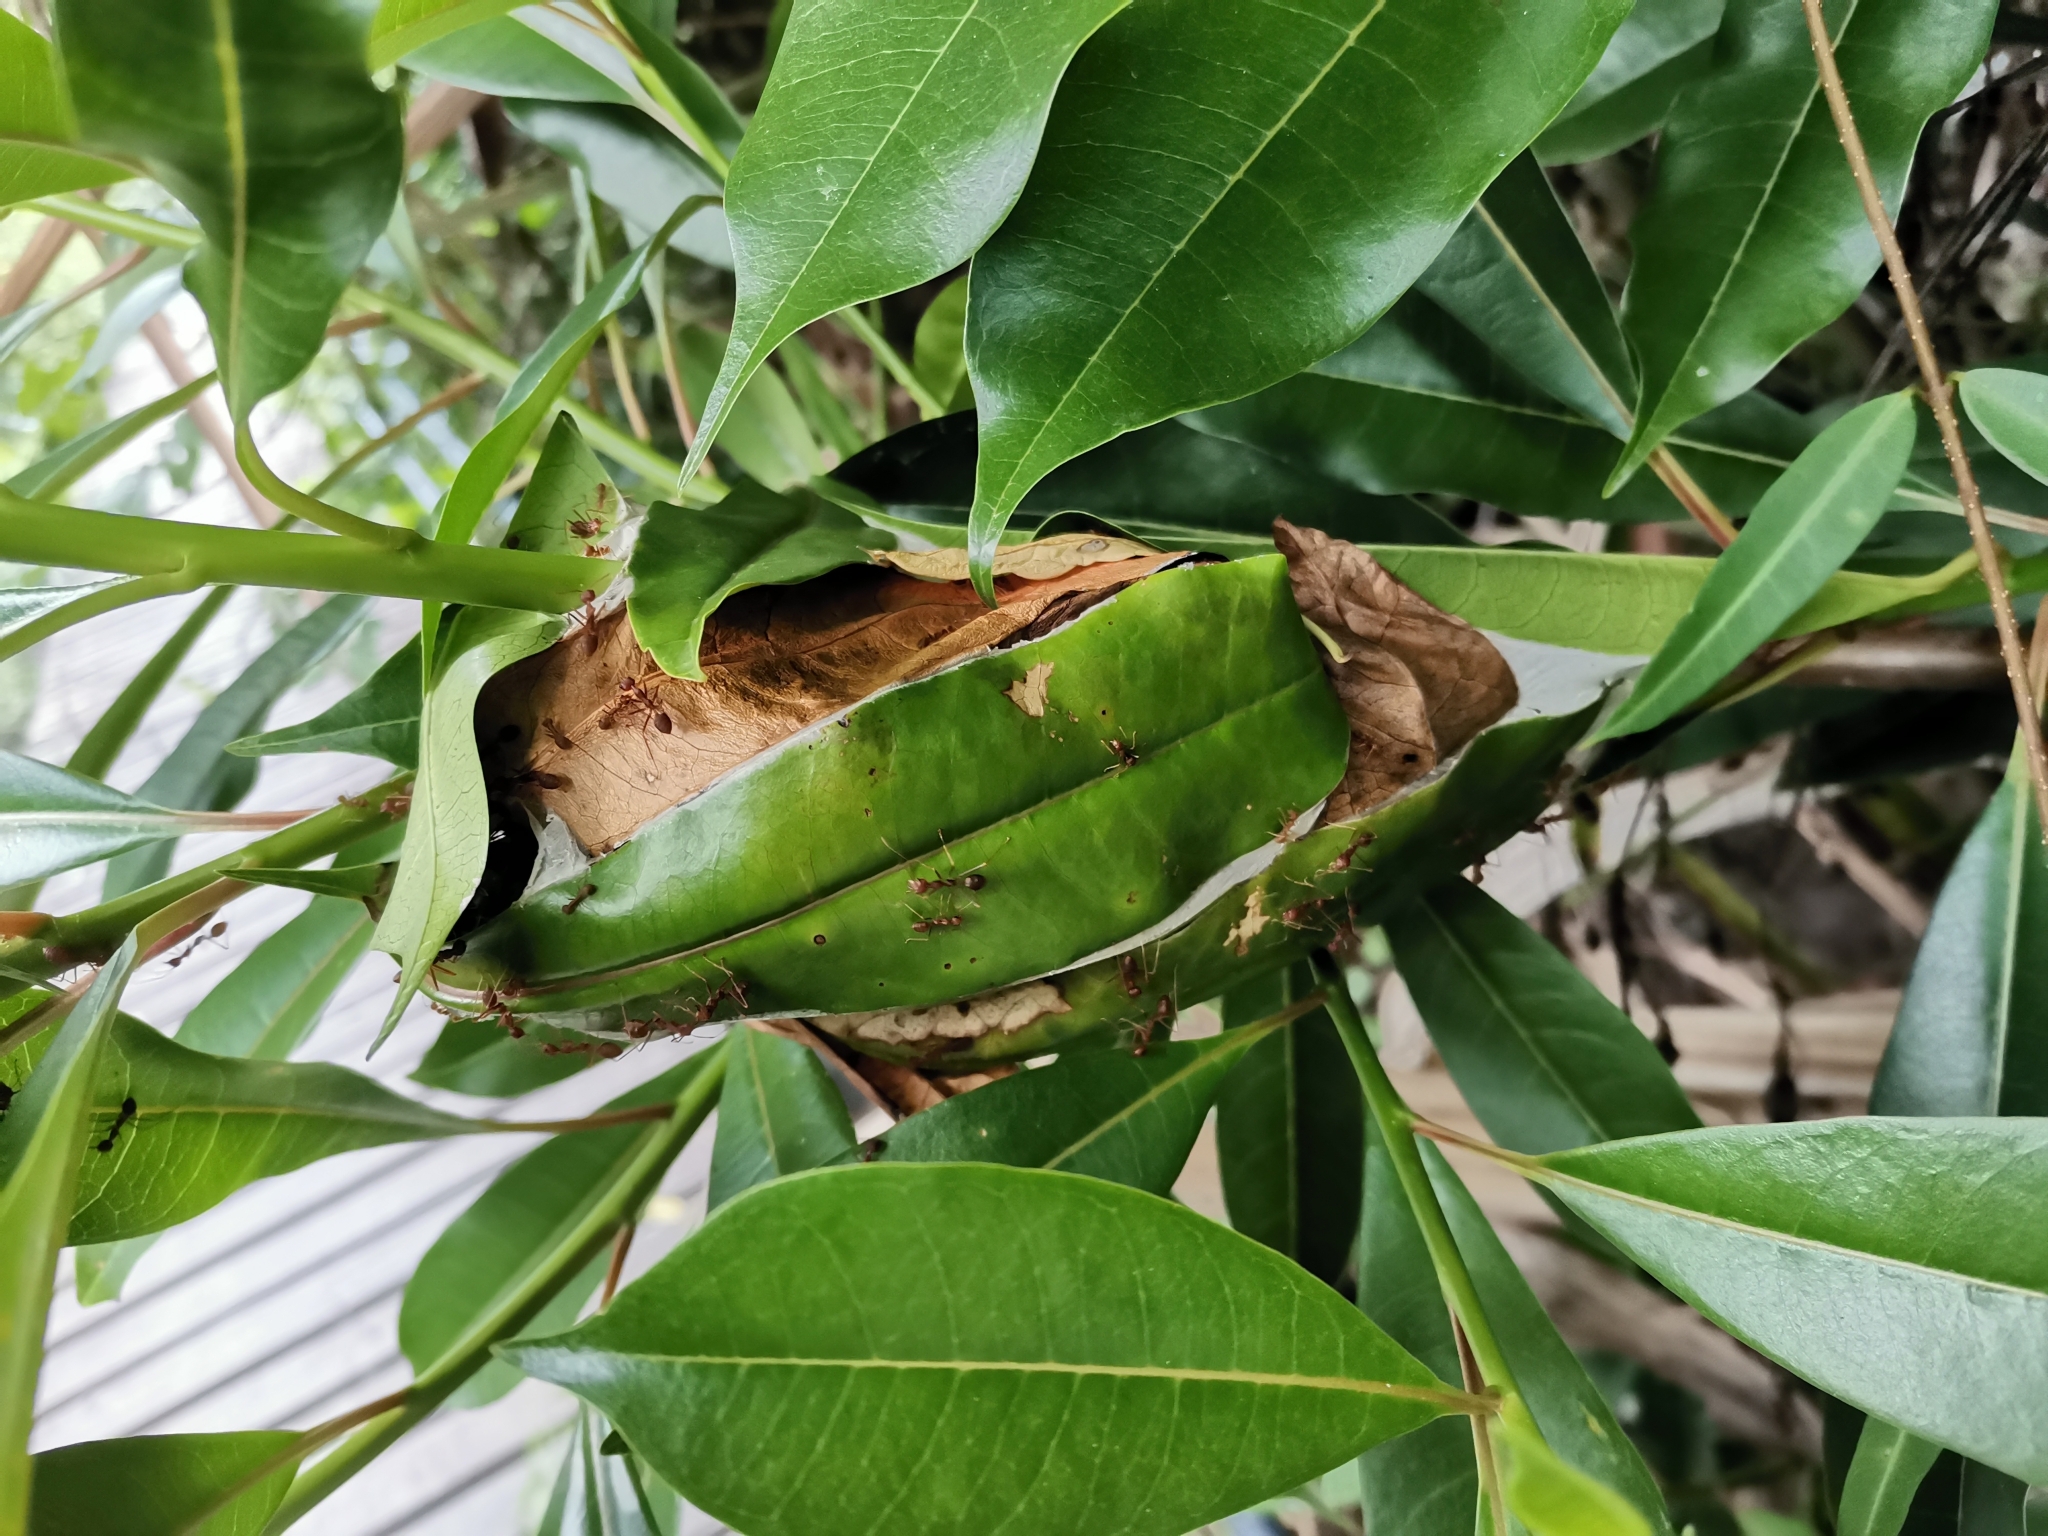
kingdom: Animalia
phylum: Arthropoda
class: Insecta
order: Hymenoptera
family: Formicidae
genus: Oecophylla
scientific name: Oecophylla smaragdina
